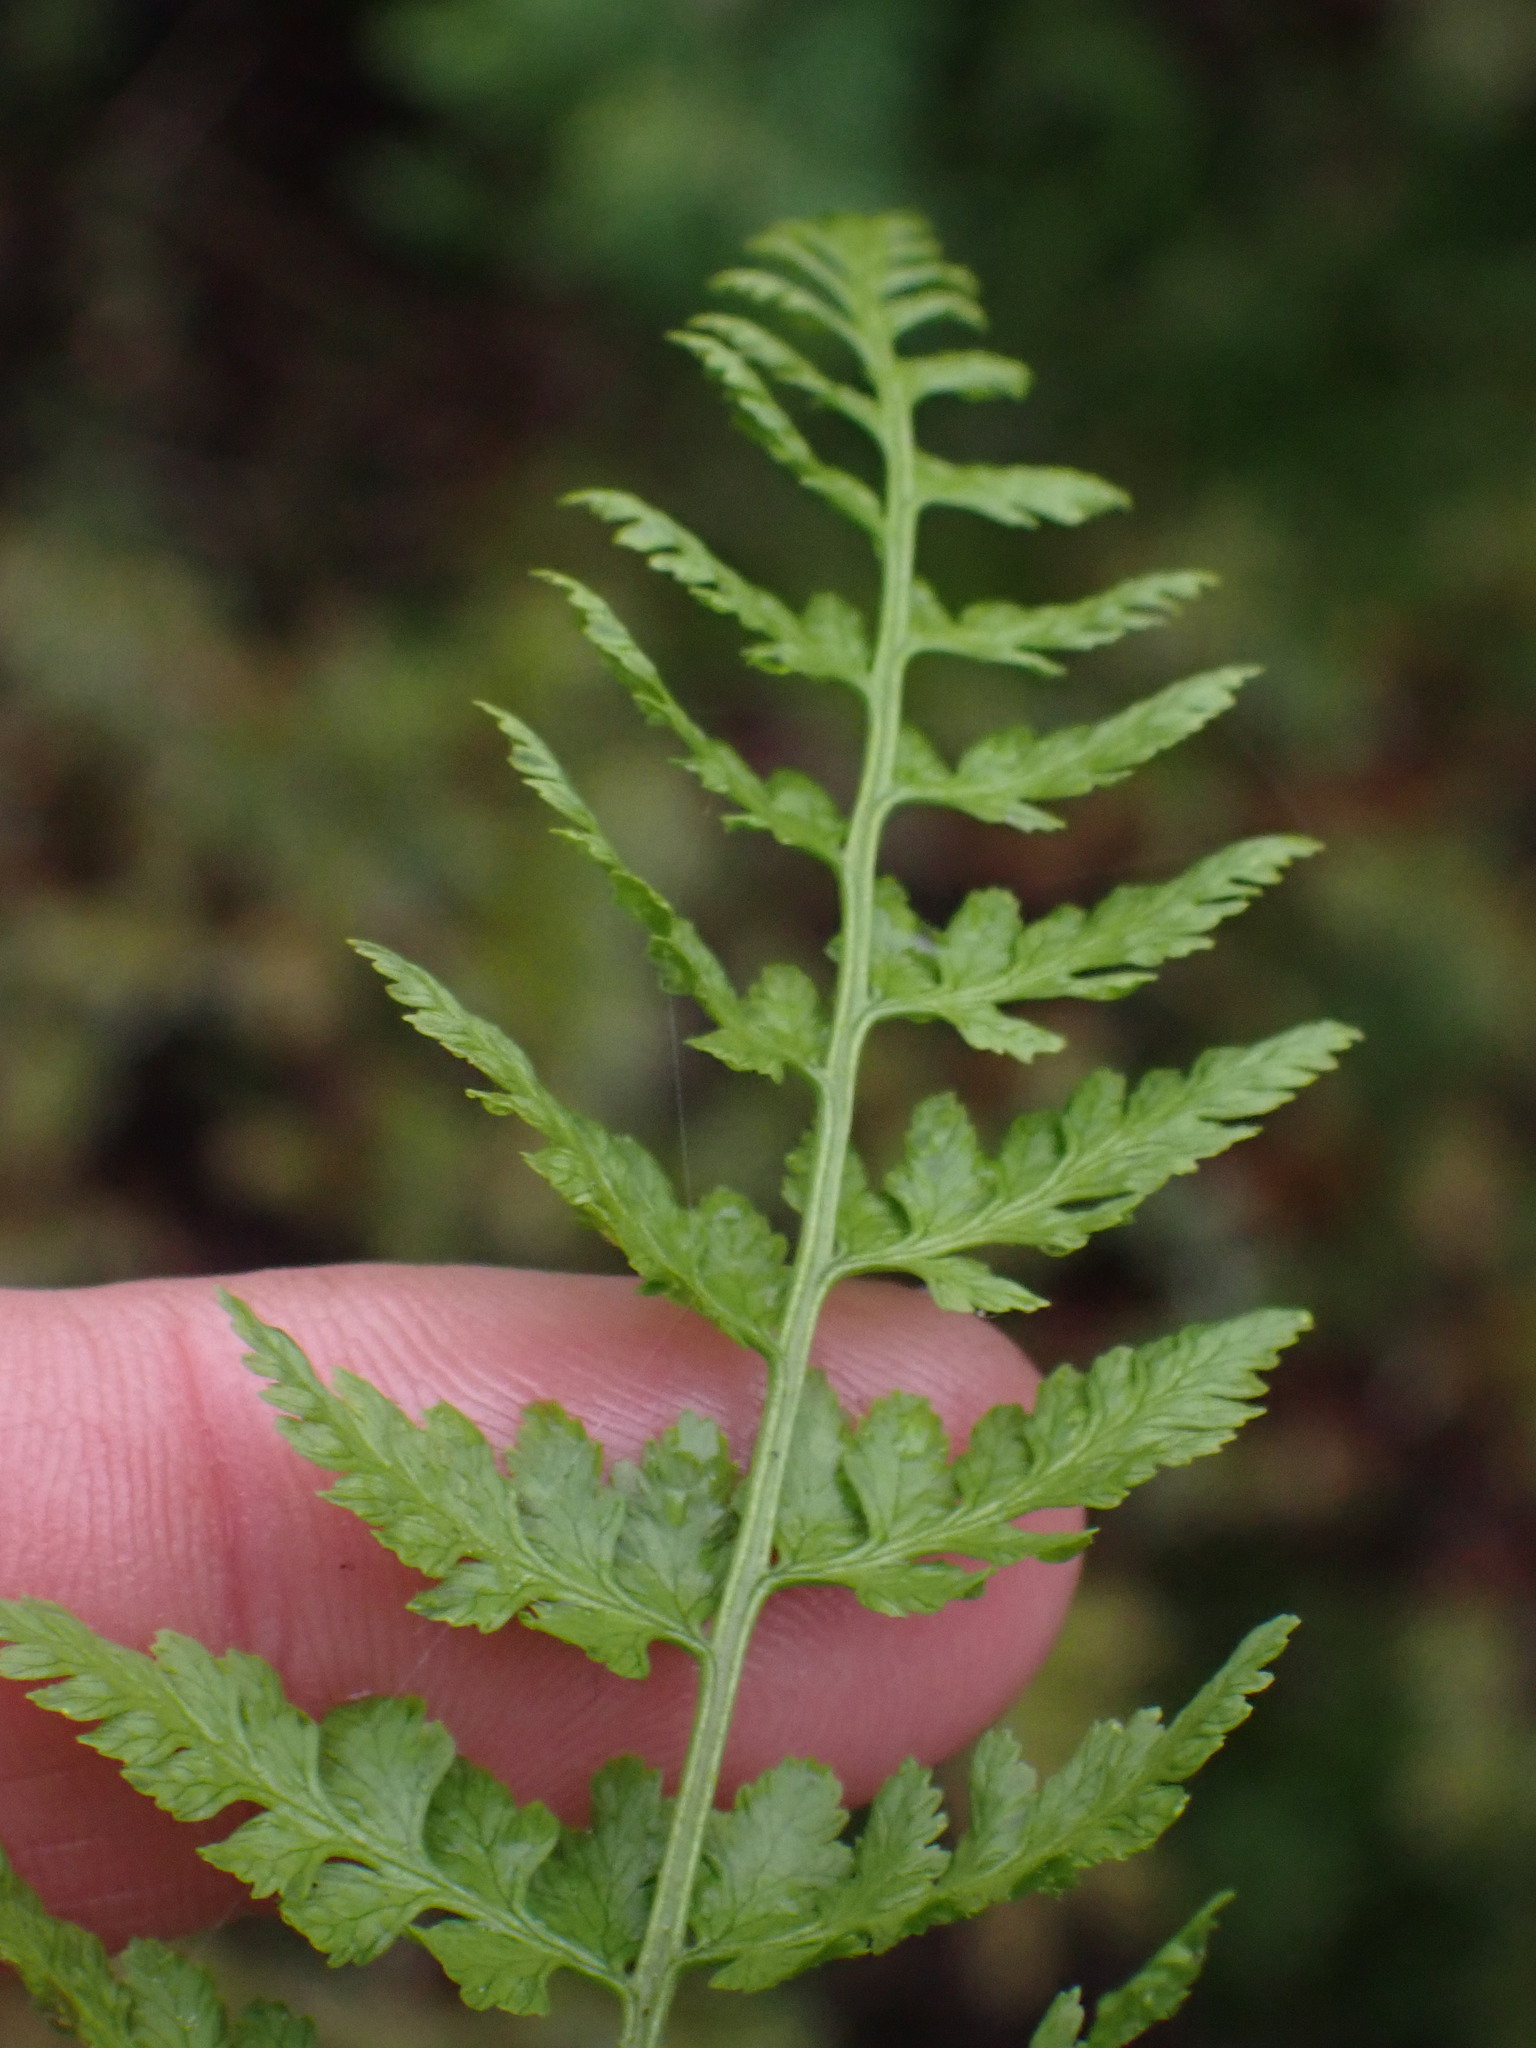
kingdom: Plantae
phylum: Tracheophyta
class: Polypodiopsida
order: Polypodiales
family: Cystopteridaceae
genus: Cystopteris
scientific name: Cystopteris fragilis
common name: Brittle bladder fern
